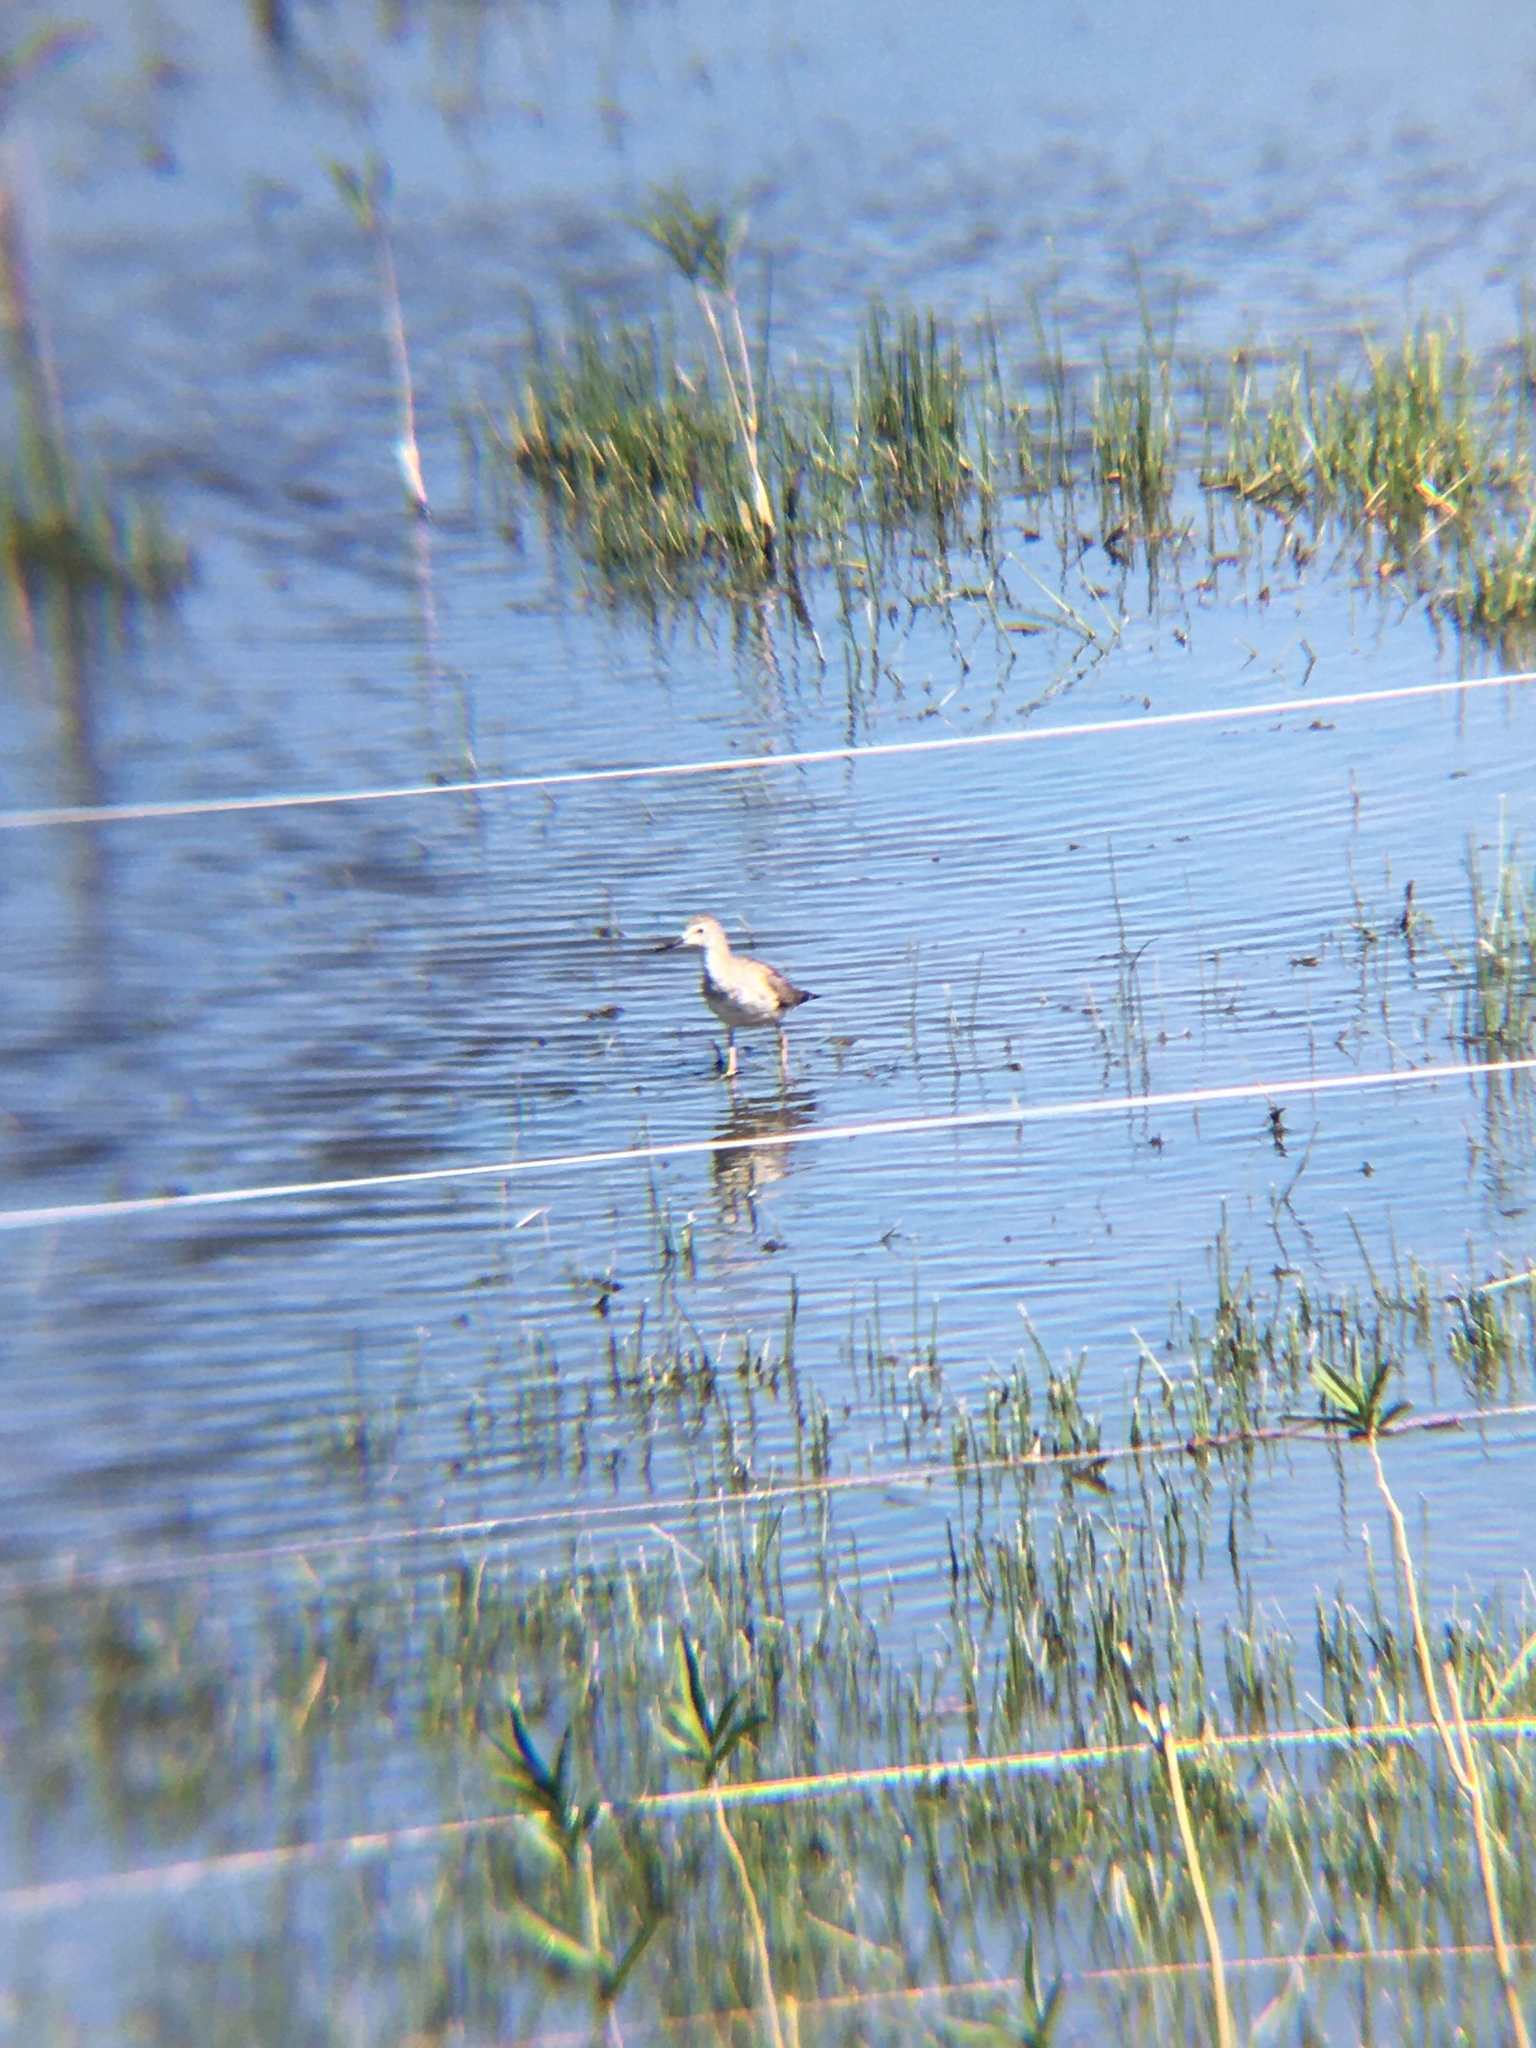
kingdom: Animalia
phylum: Chordata
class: Aves
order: Charadriiformes
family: Scolopacidae
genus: Tringa
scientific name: Tringa flavipes
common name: Lesser yellowlegs
